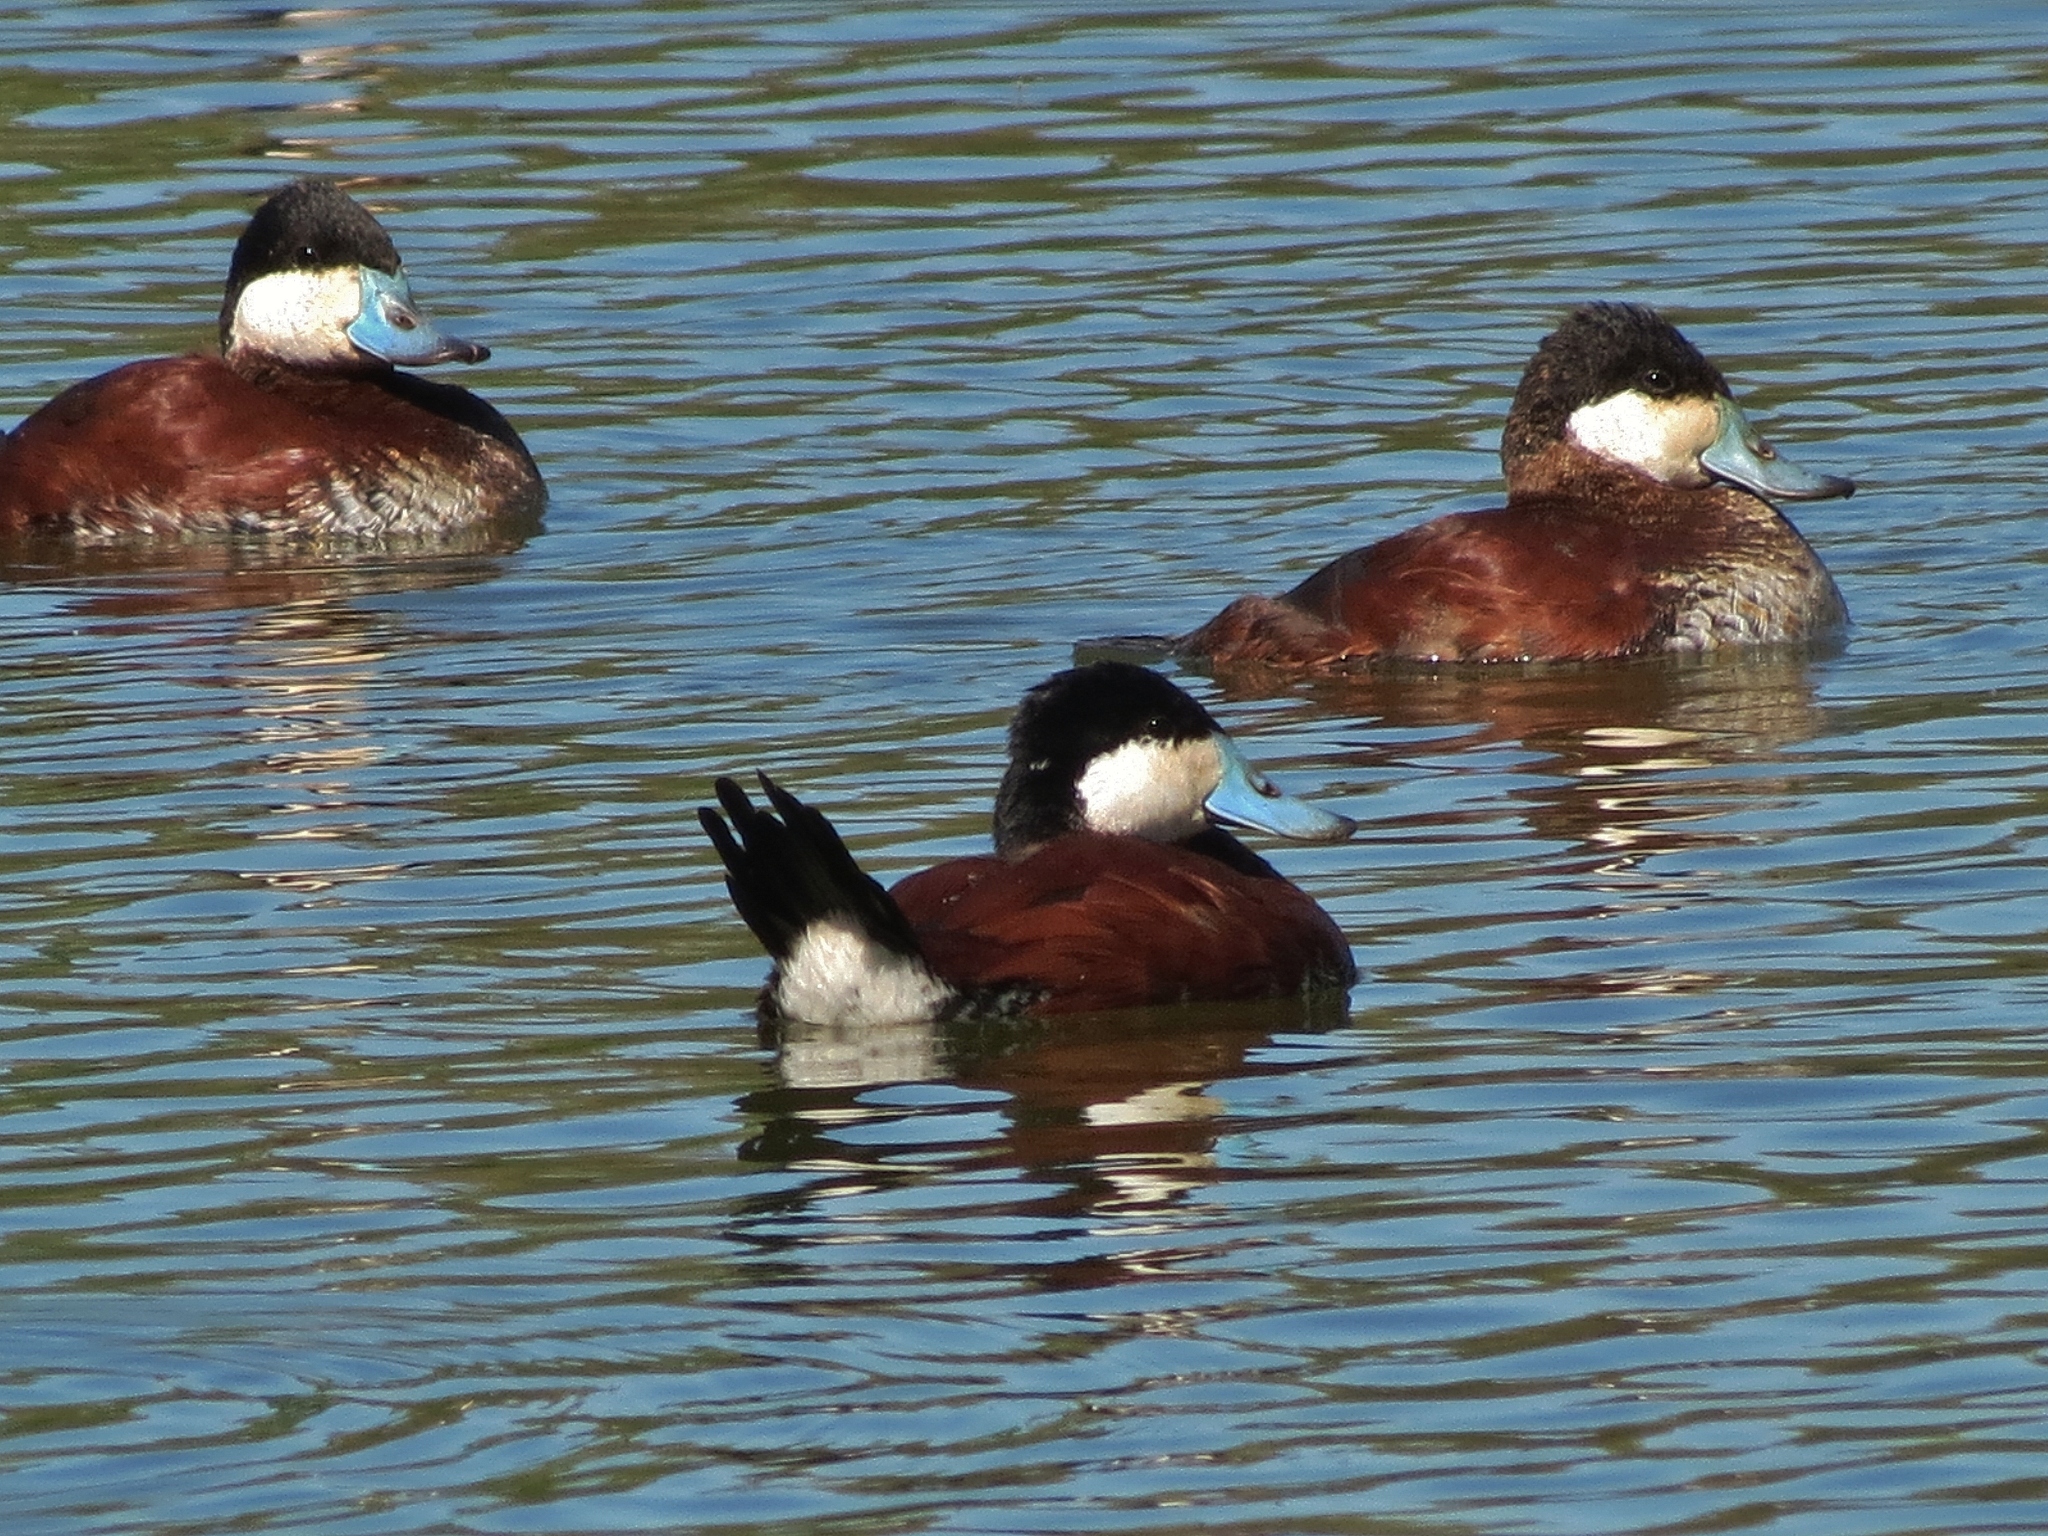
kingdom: Animalia
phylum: Chordata
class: Aves
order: Anseriformes
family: Anatidae
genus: Oxyura
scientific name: Oxyura jamaicensis
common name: Ruddy duck
